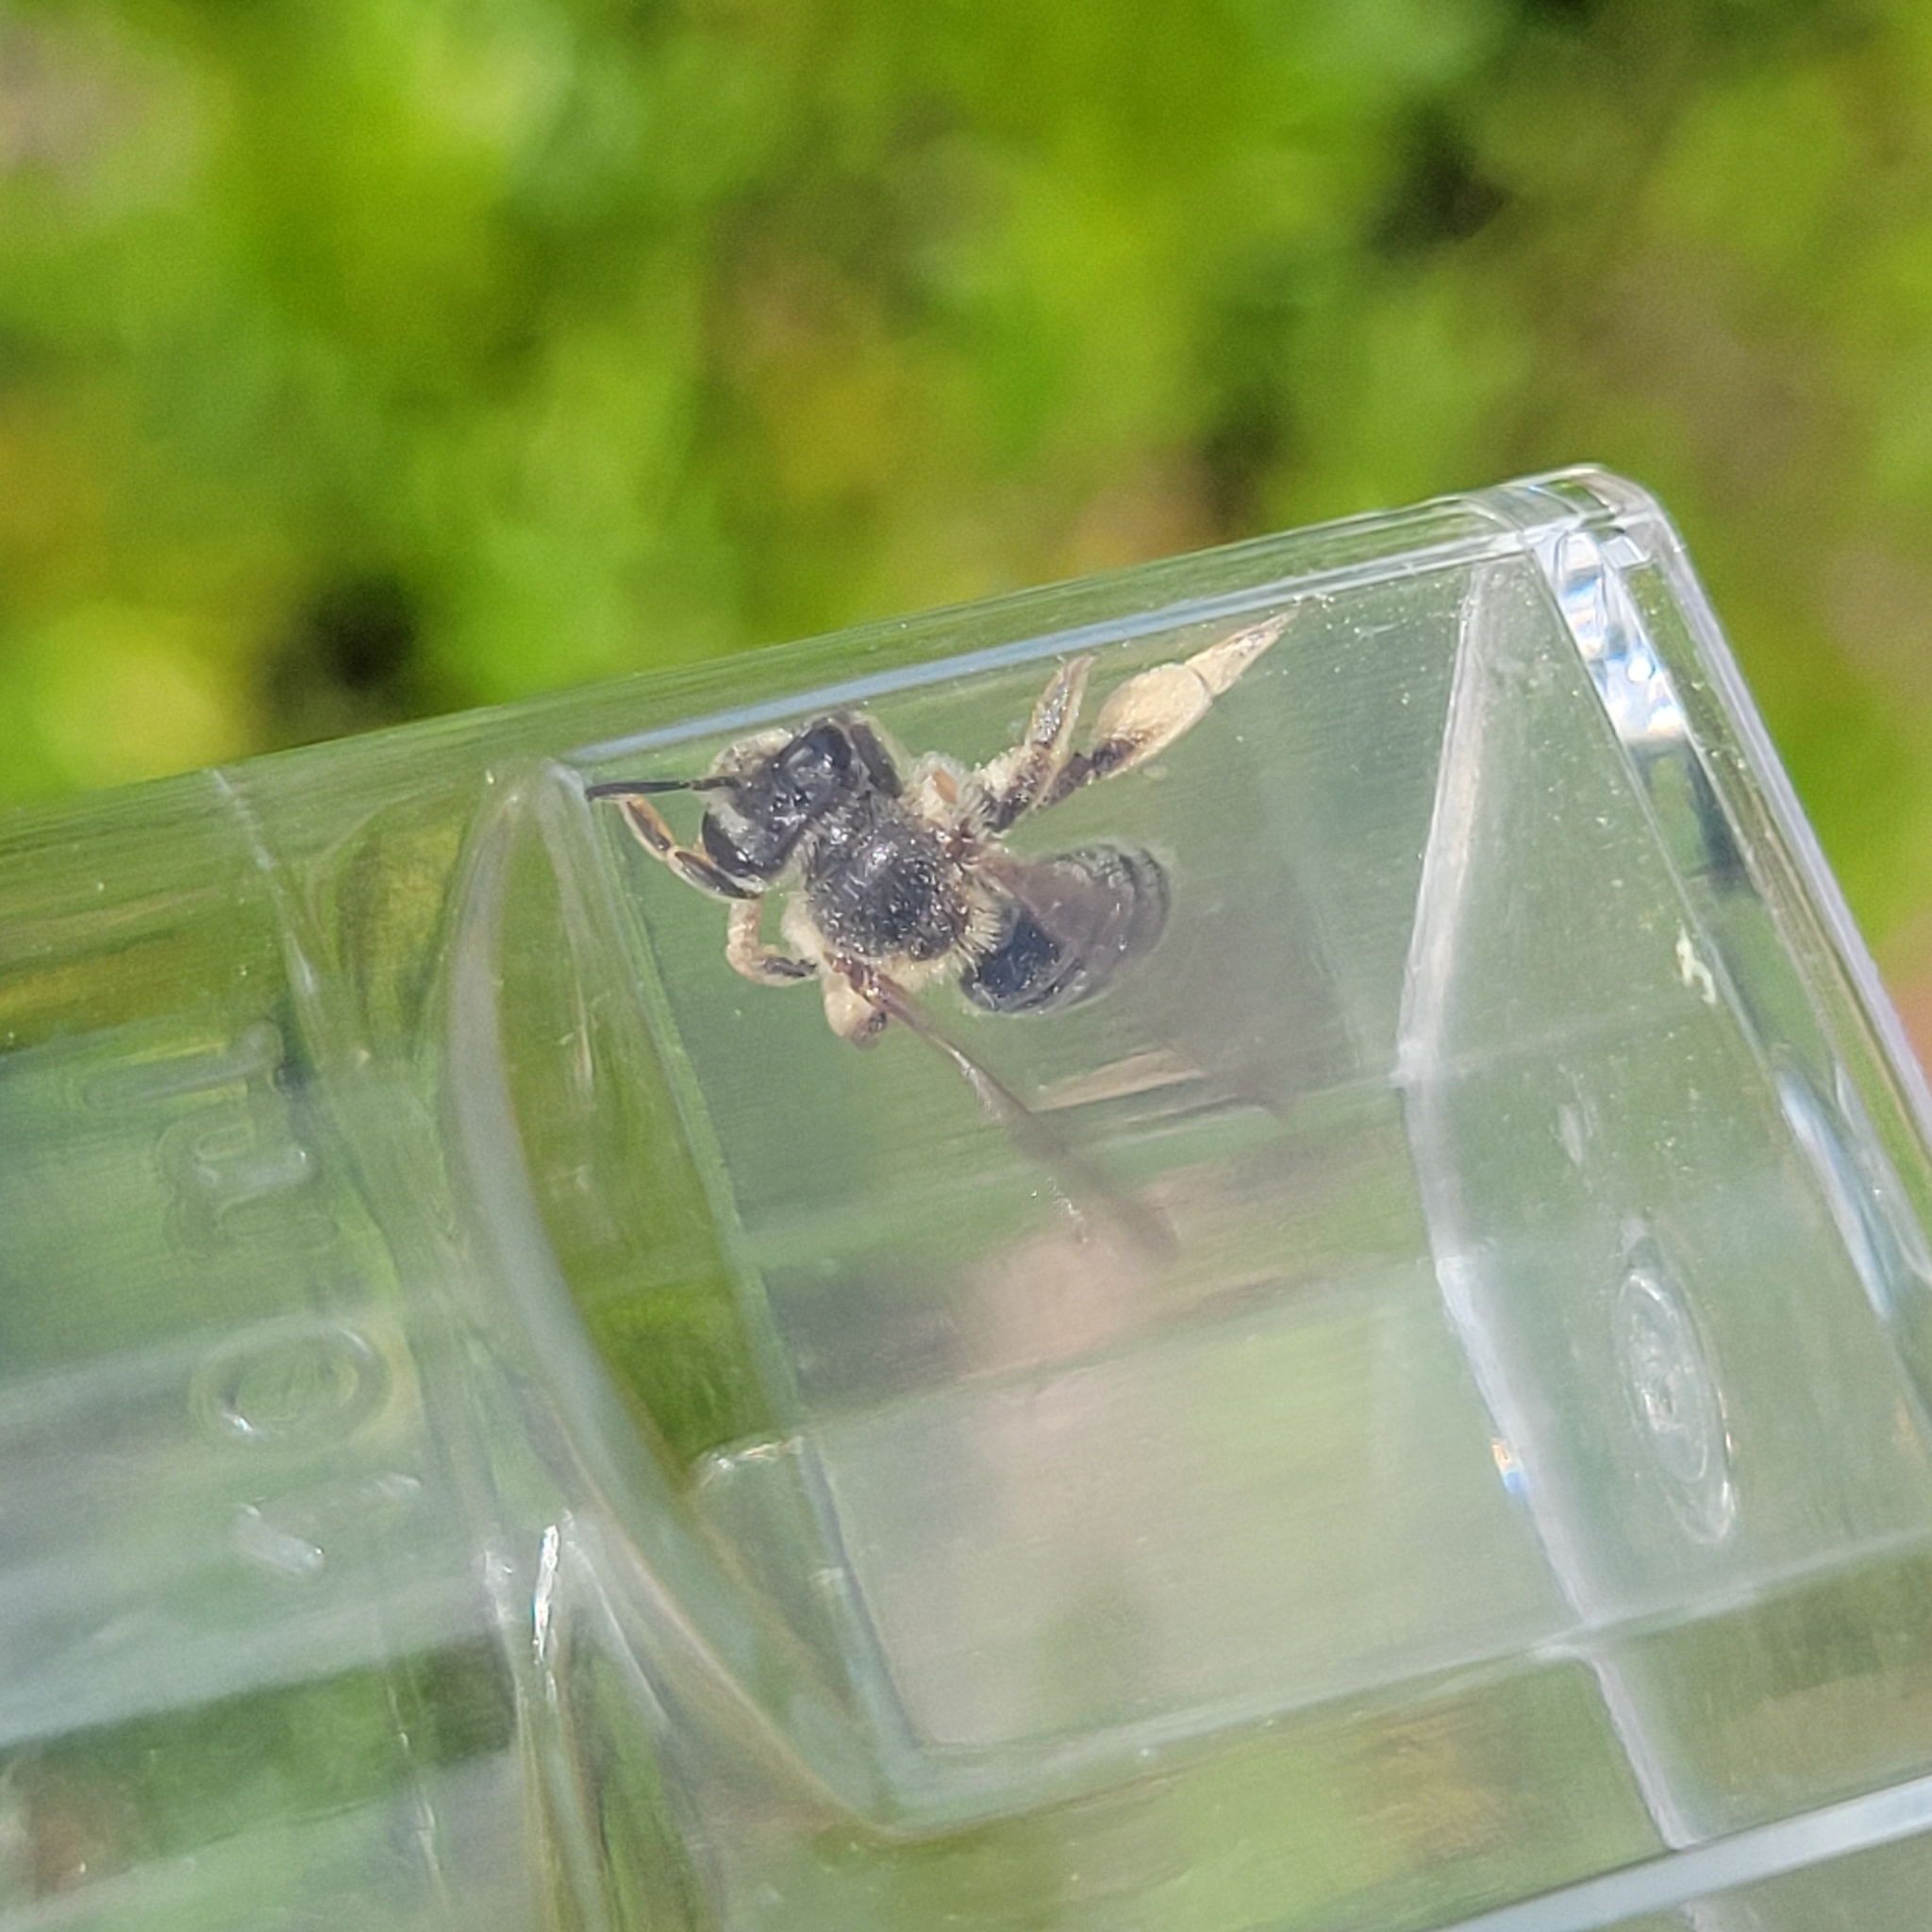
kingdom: Animalia
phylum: Arthropoda
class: Insecta
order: Hymenoptera
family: Andrenidae
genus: Andrena
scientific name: Andrena kalmiae
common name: Kalmia miner bee
